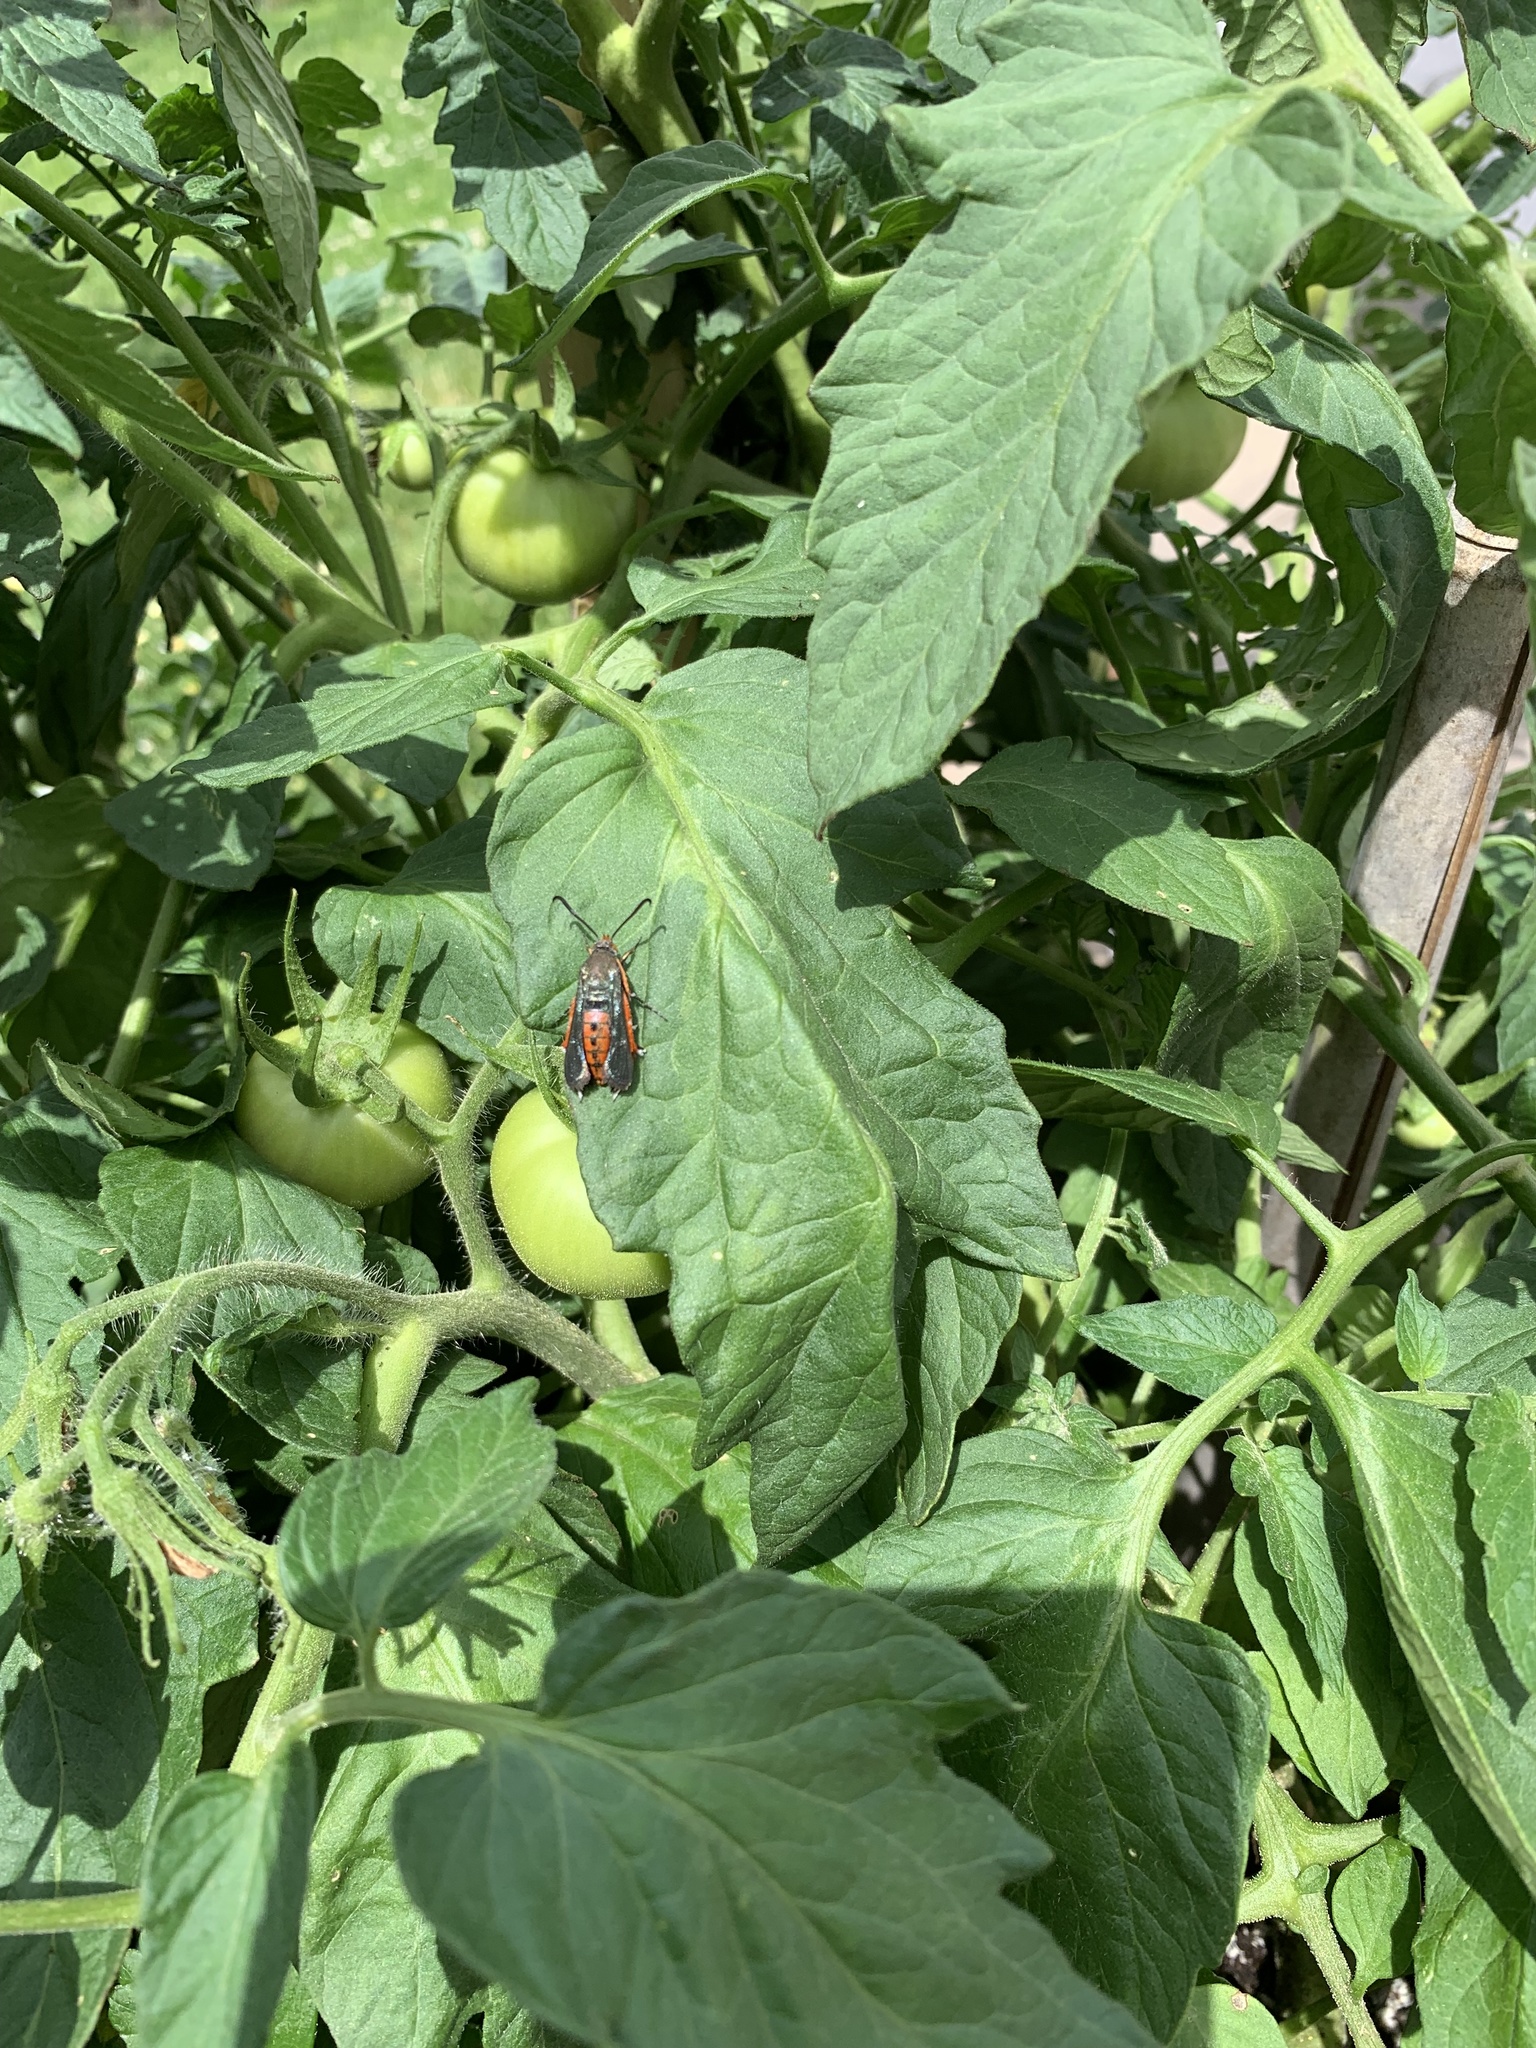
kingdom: Animalia
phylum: Arthropoda
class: Insecta
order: Lepidoptera
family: Sesiidae
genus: Eichlinia
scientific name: Eichlinia cucurbitae
